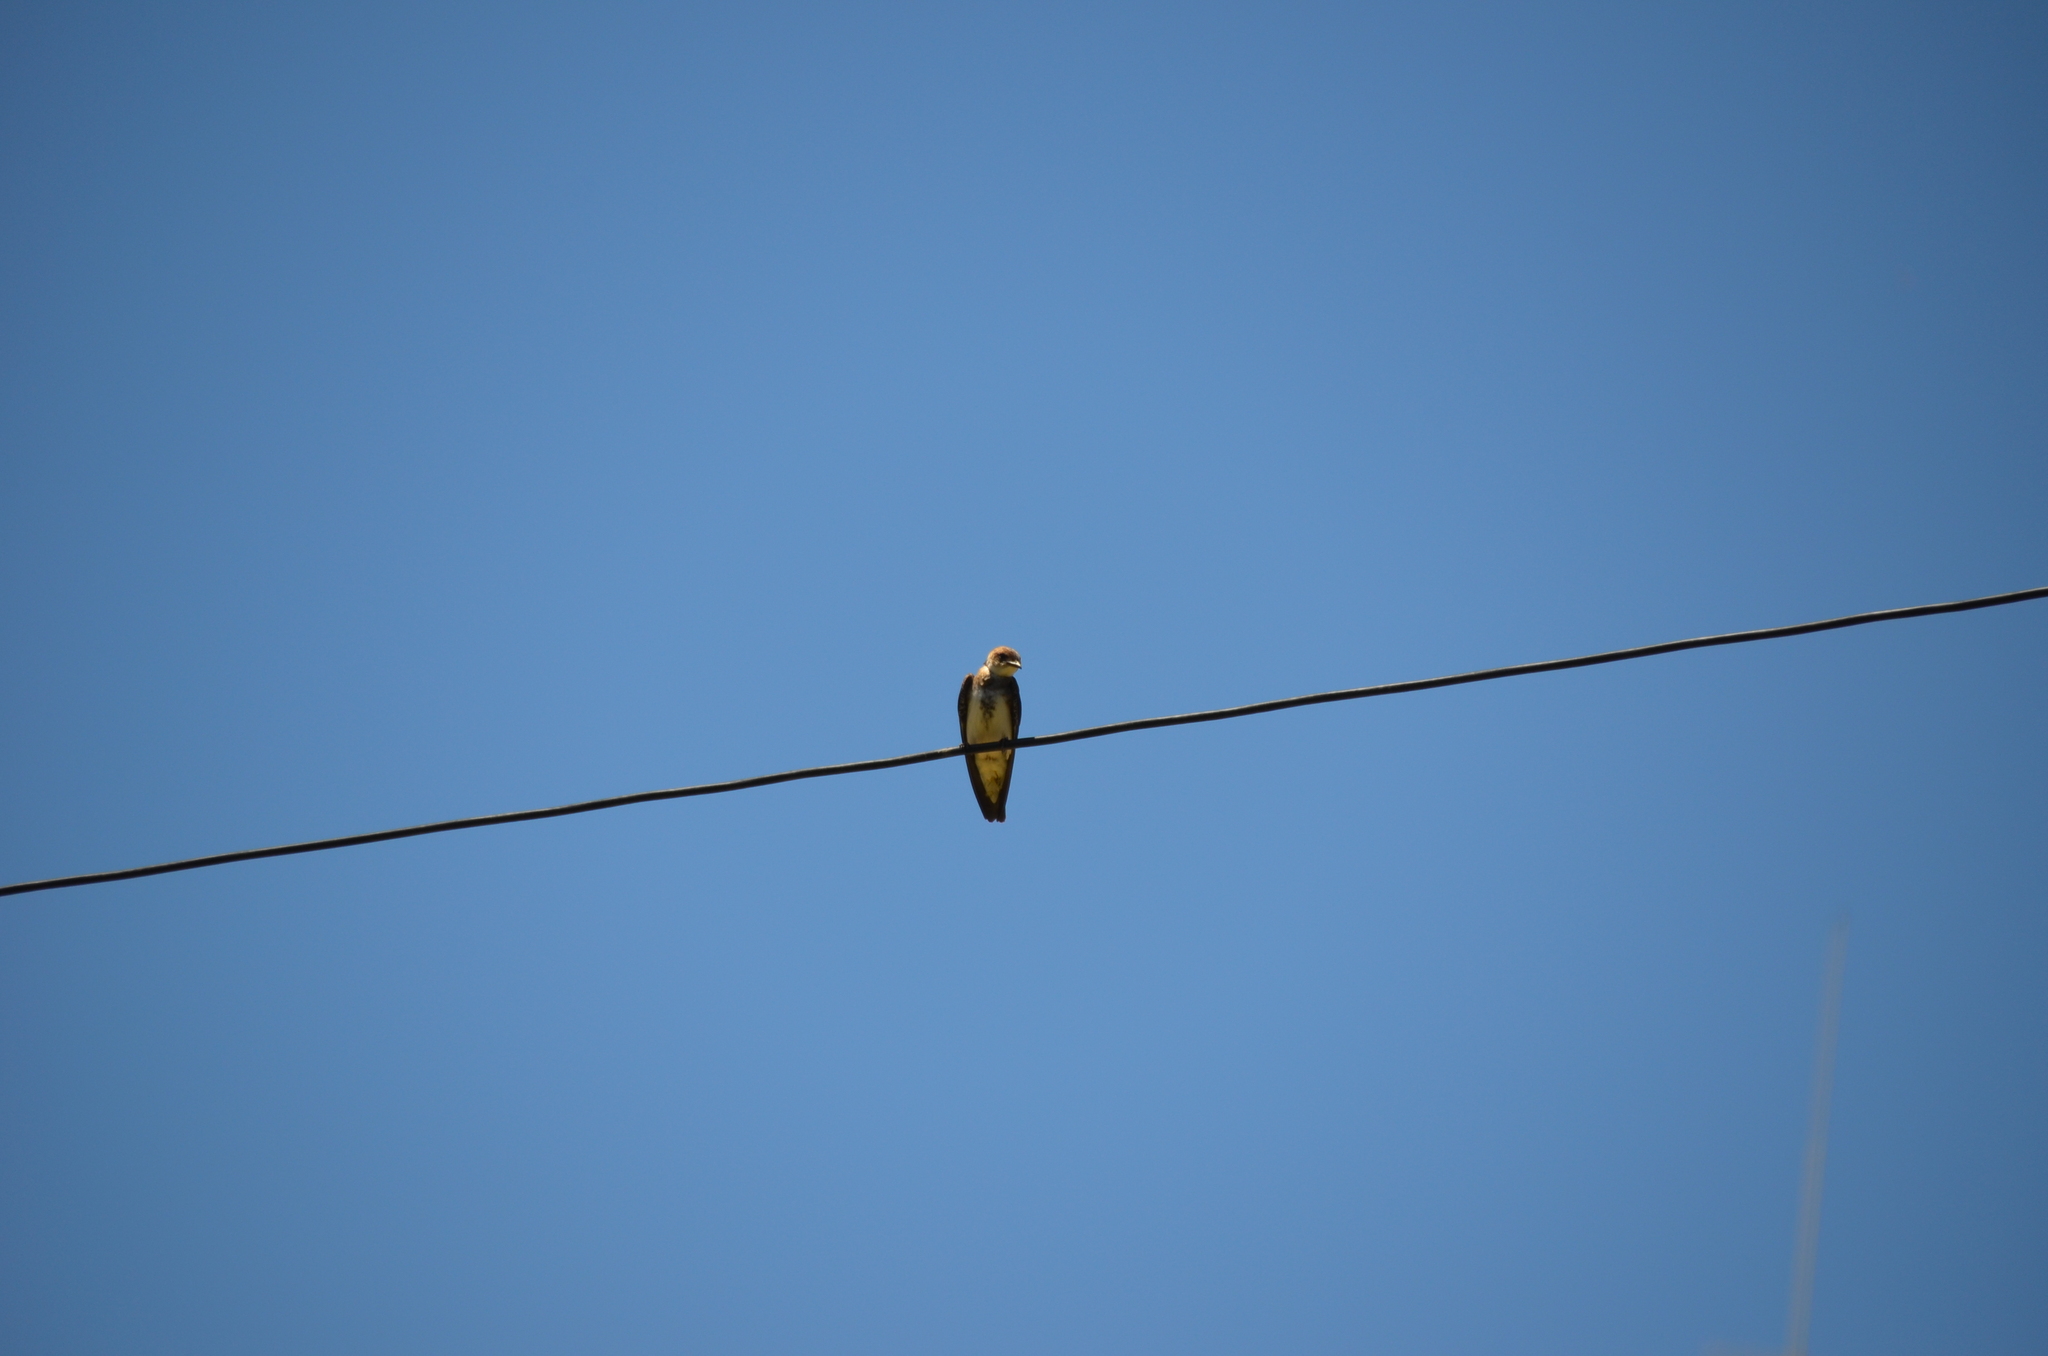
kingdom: Animalia
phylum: Chordata
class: Aves
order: Passeriformes
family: Hirundinidae
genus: Progne
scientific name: Progne tapera
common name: Brown-chested martin
